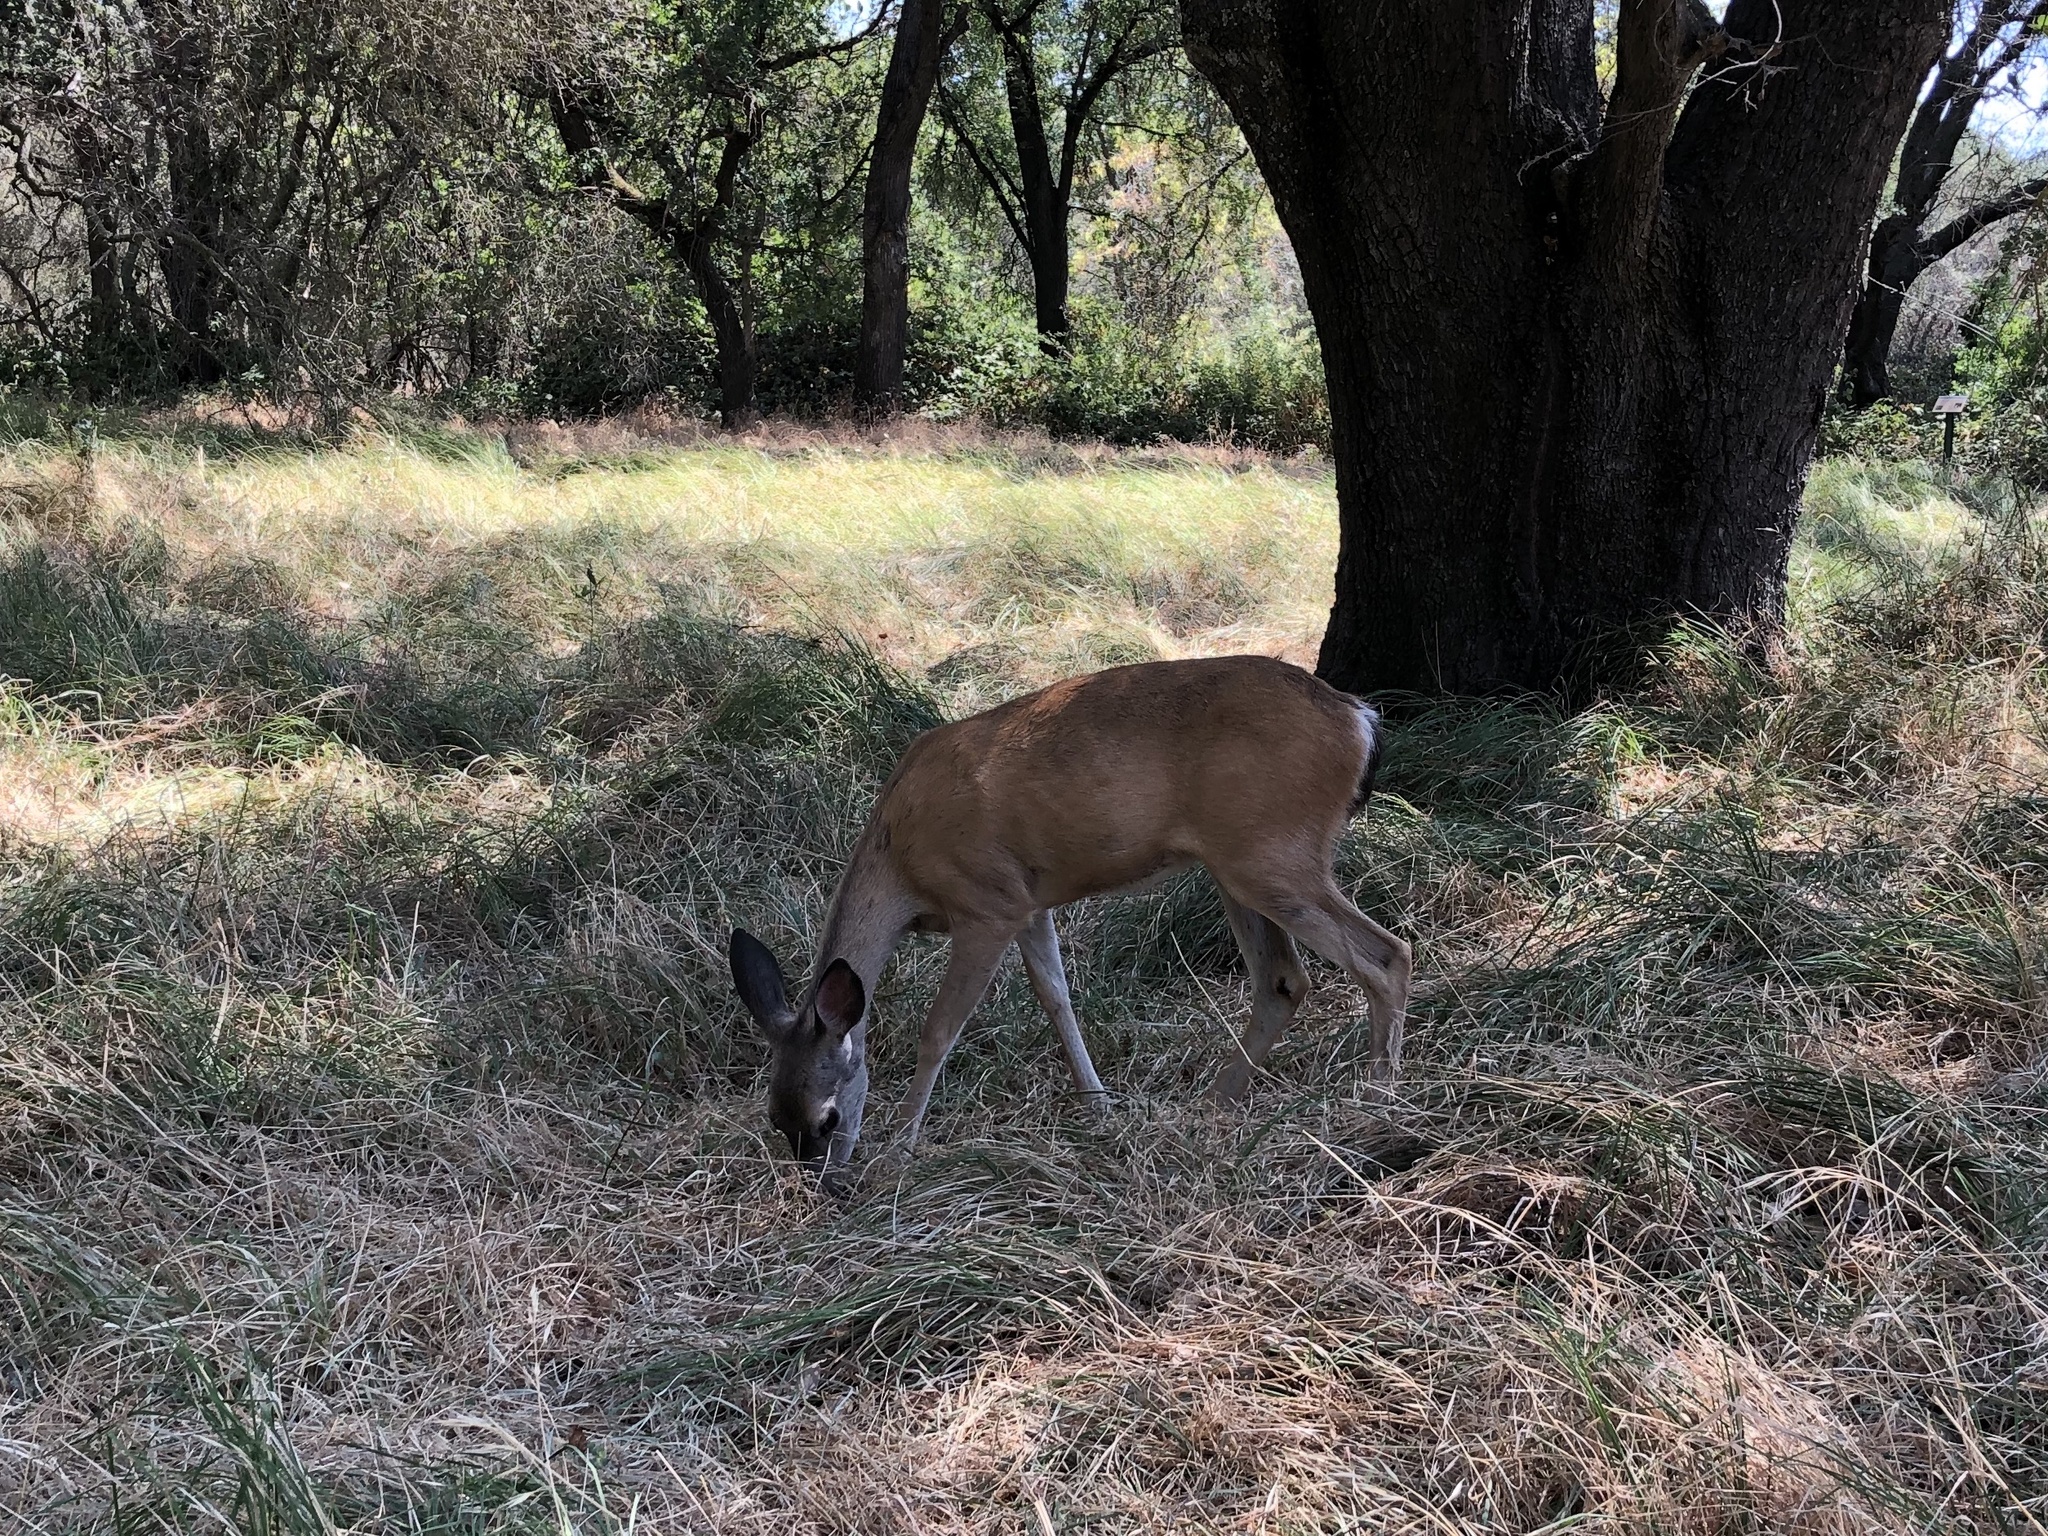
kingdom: Animalia
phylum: Chordata
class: Mammalia
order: Artiodactyla
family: Cervidae
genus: Odocoileus
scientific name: Odocoileus hemionus
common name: Mule deer
